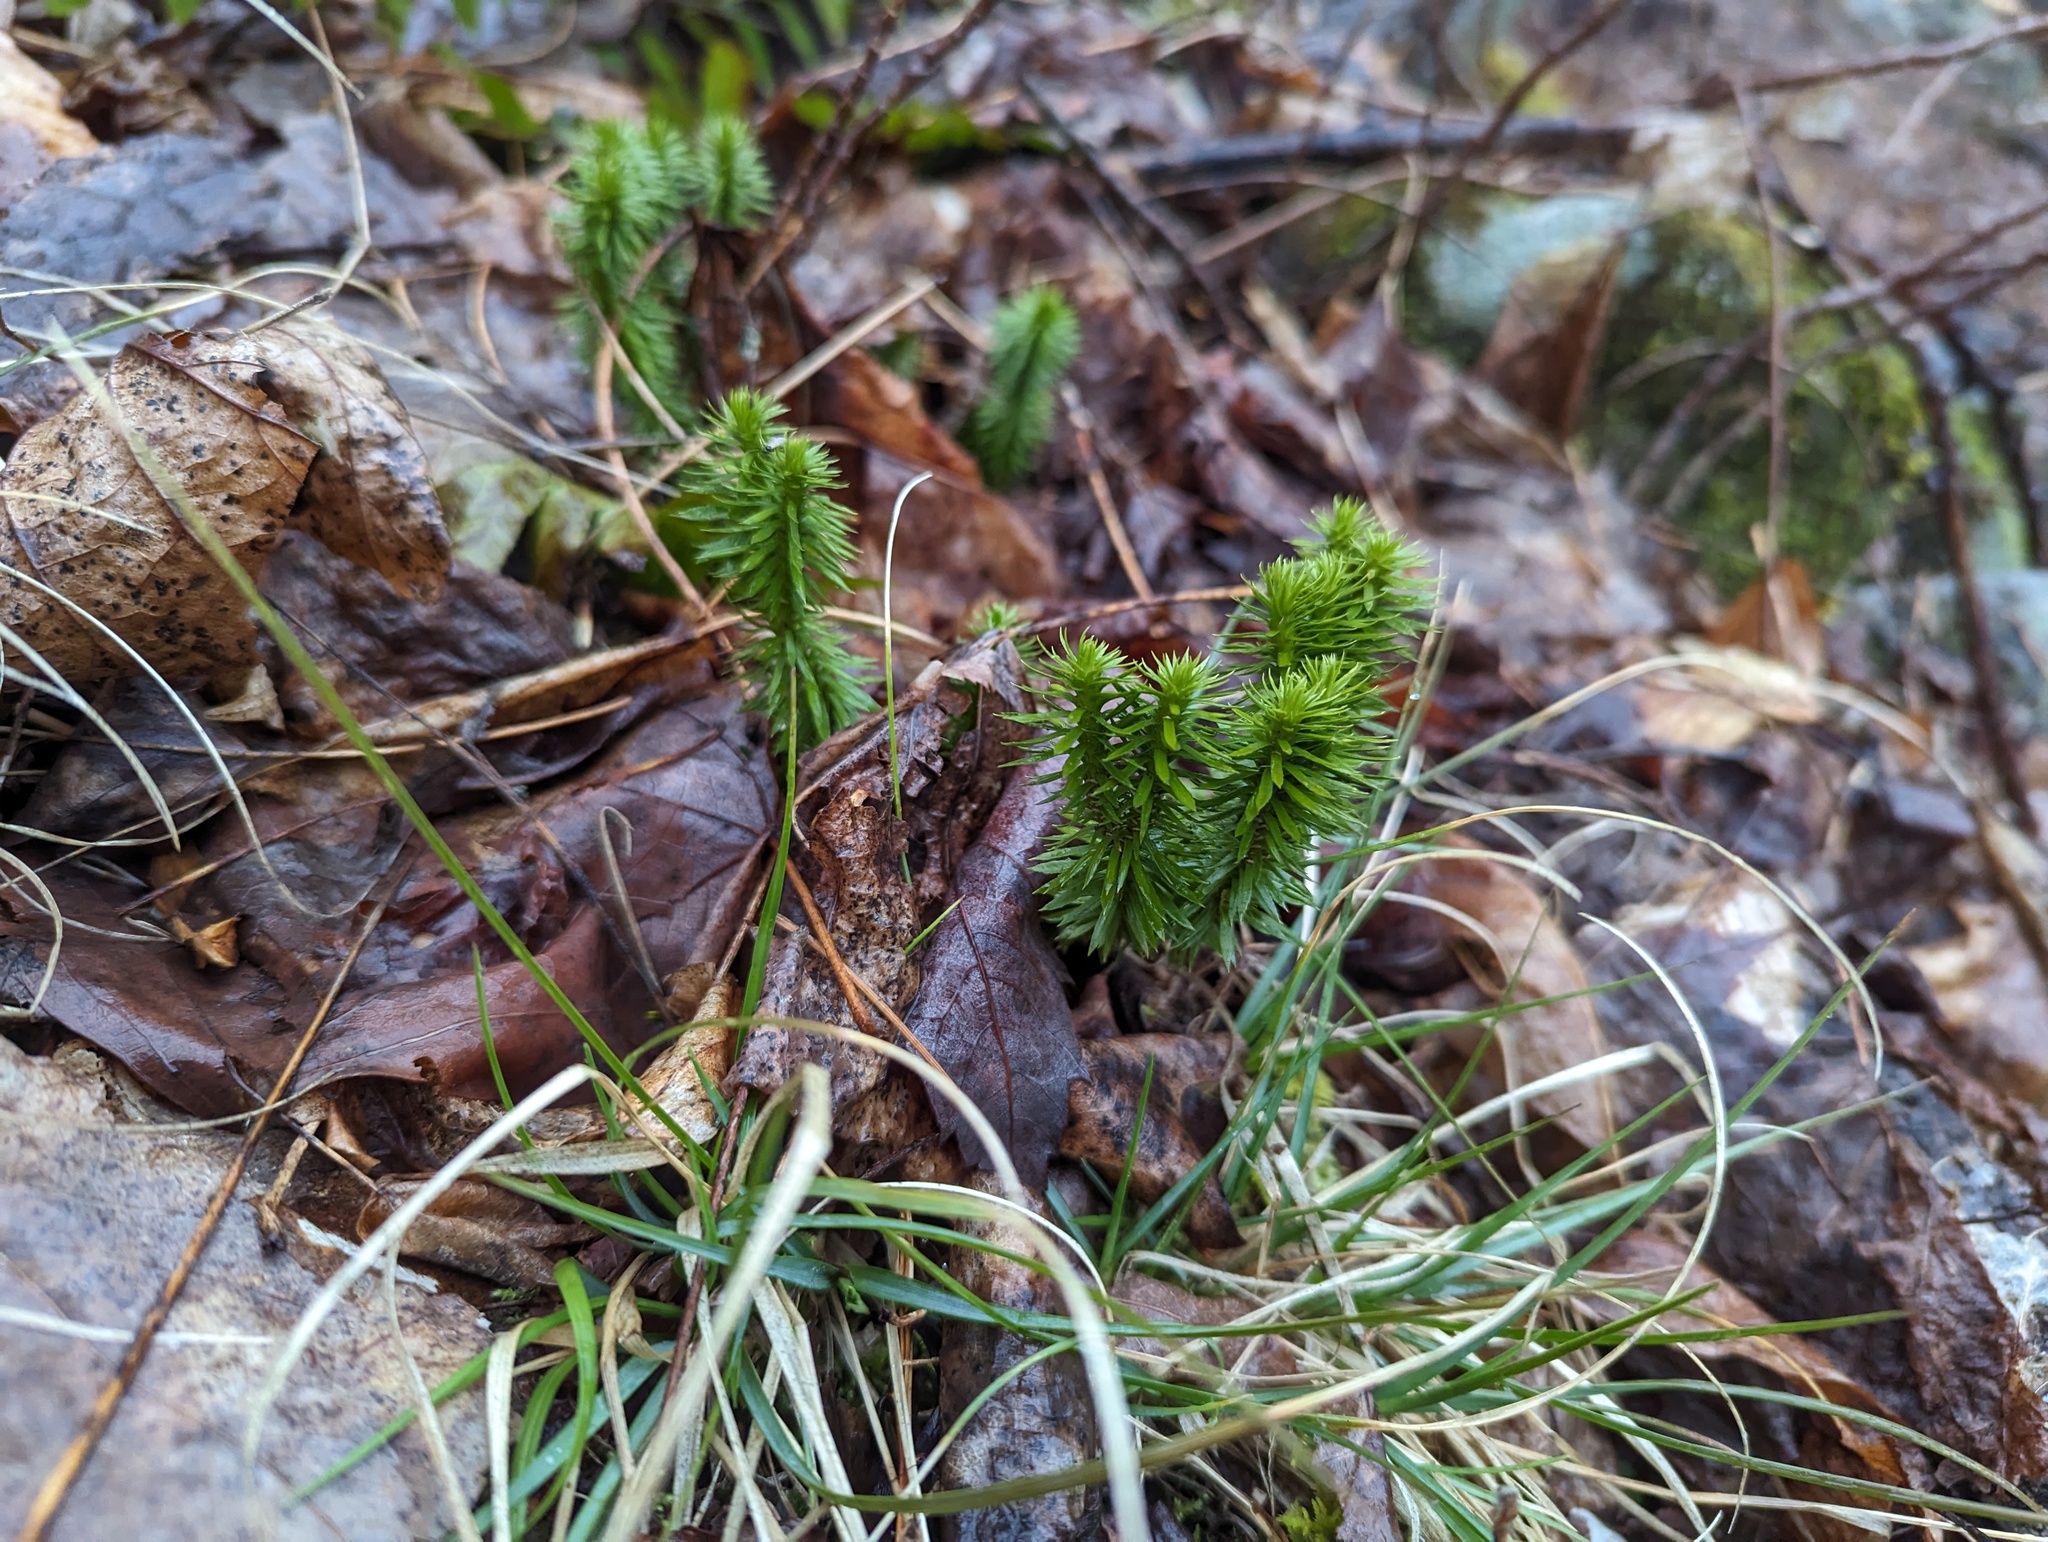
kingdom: Plantae
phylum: Tracheophyta
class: Lycopodiopsida
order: Lycopodiales
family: Lycopodiaceae
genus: Huperzia
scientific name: Huperzia lucidula
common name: Shining clubmoss
